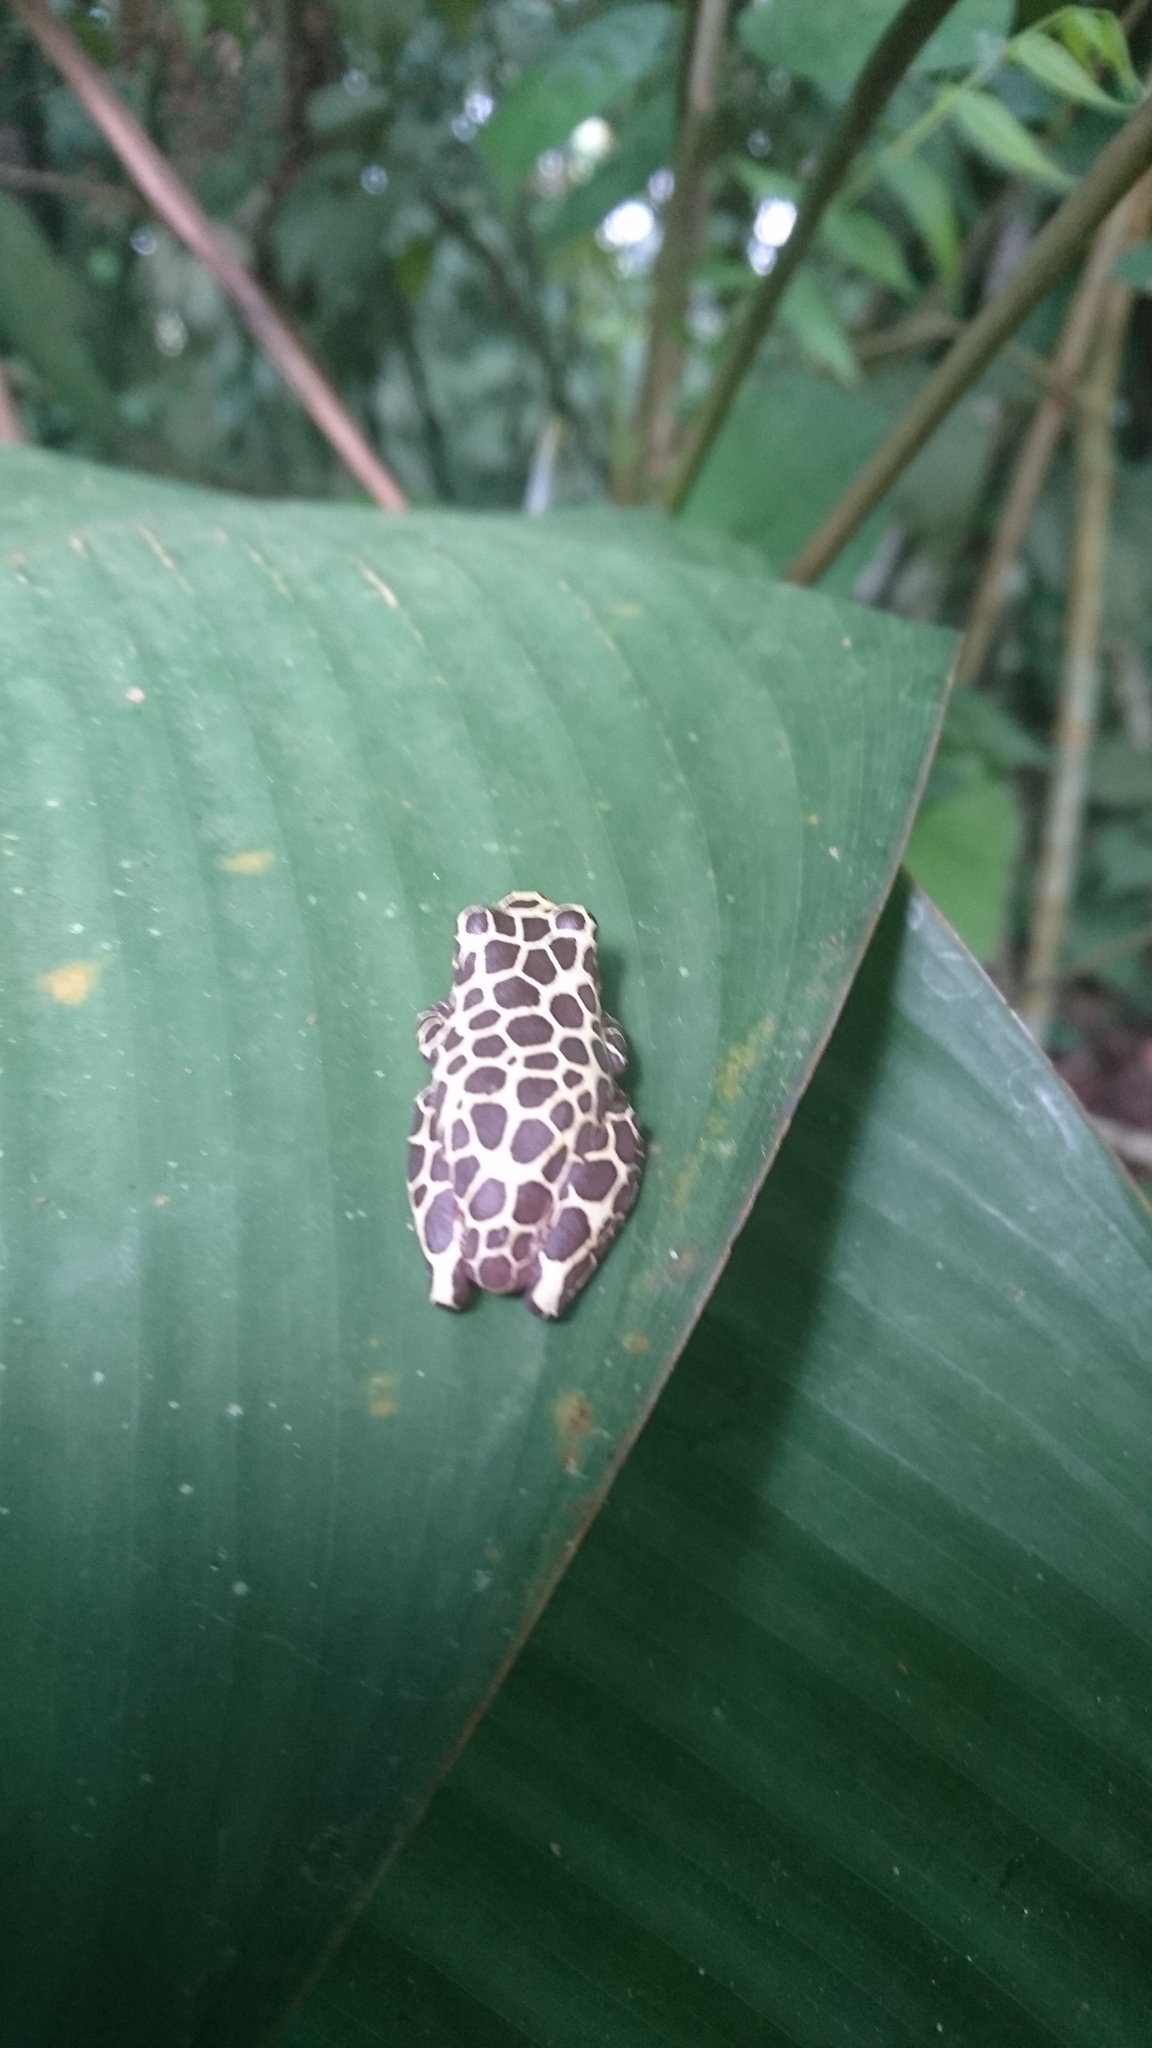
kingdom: Animalia
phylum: Chordata
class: Amphibia
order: Anura
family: Hylidae
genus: Dendropsophus
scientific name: Dendropsophus reticulatus
